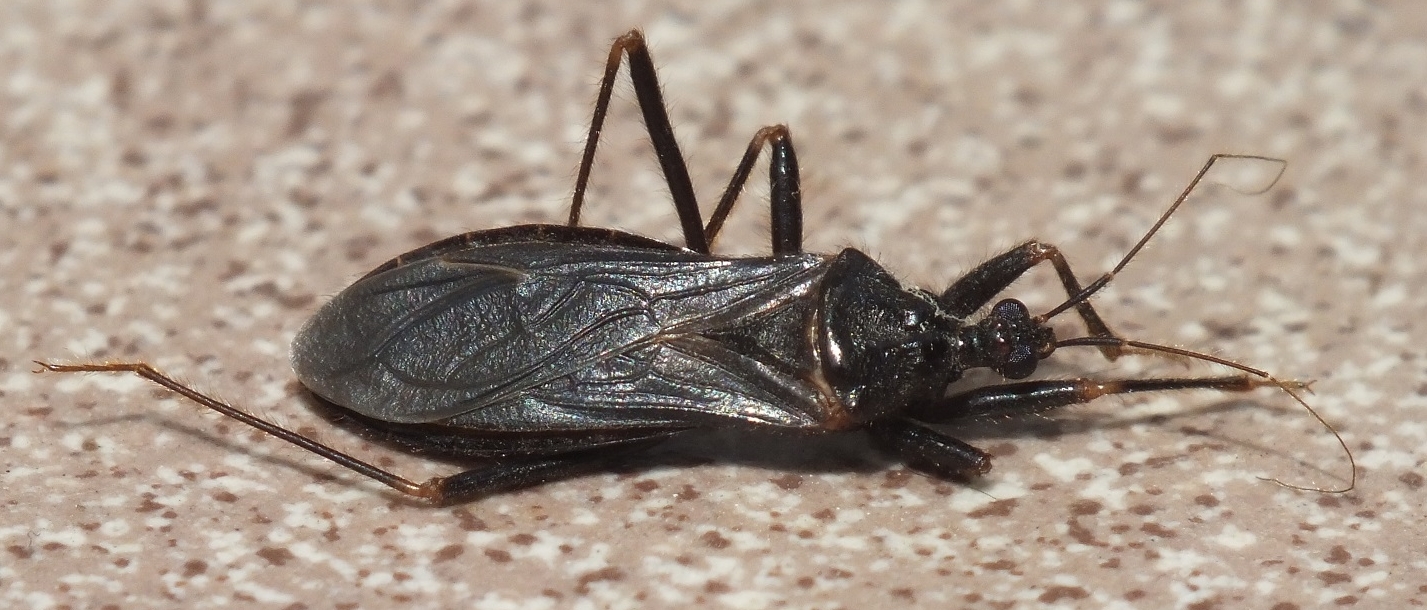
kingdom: Animalia
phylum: Arthropoda
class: Insecta
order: Hemiptera
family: Reduviidae
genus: Reduvius
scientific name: Reduvius personatus
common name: Masked hunter
